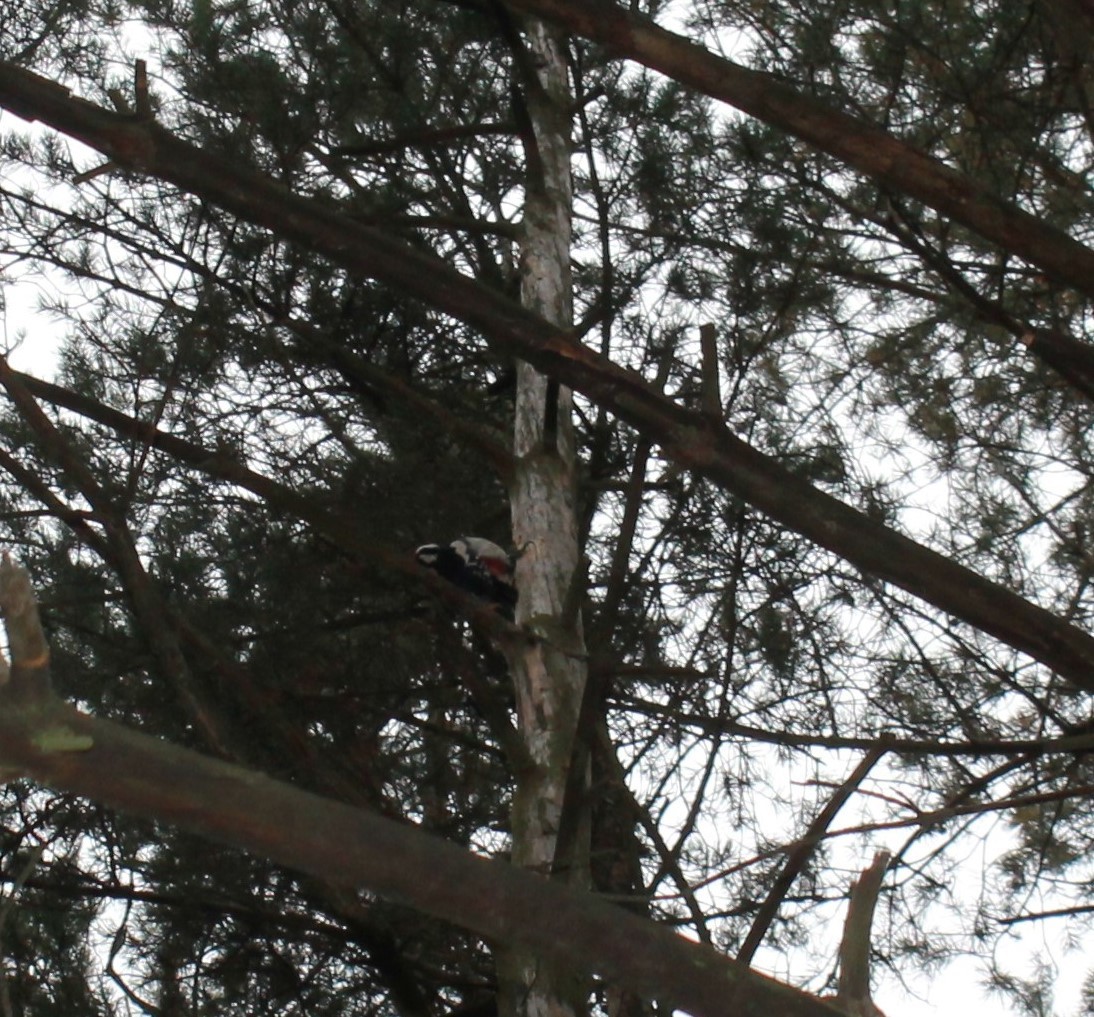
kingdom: Animalia
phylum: Chordata
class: Aves
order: Piciformes
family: Picidae
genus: Dendrocopos
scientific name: Dendrocopos major
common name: Great spotted woodpecker
